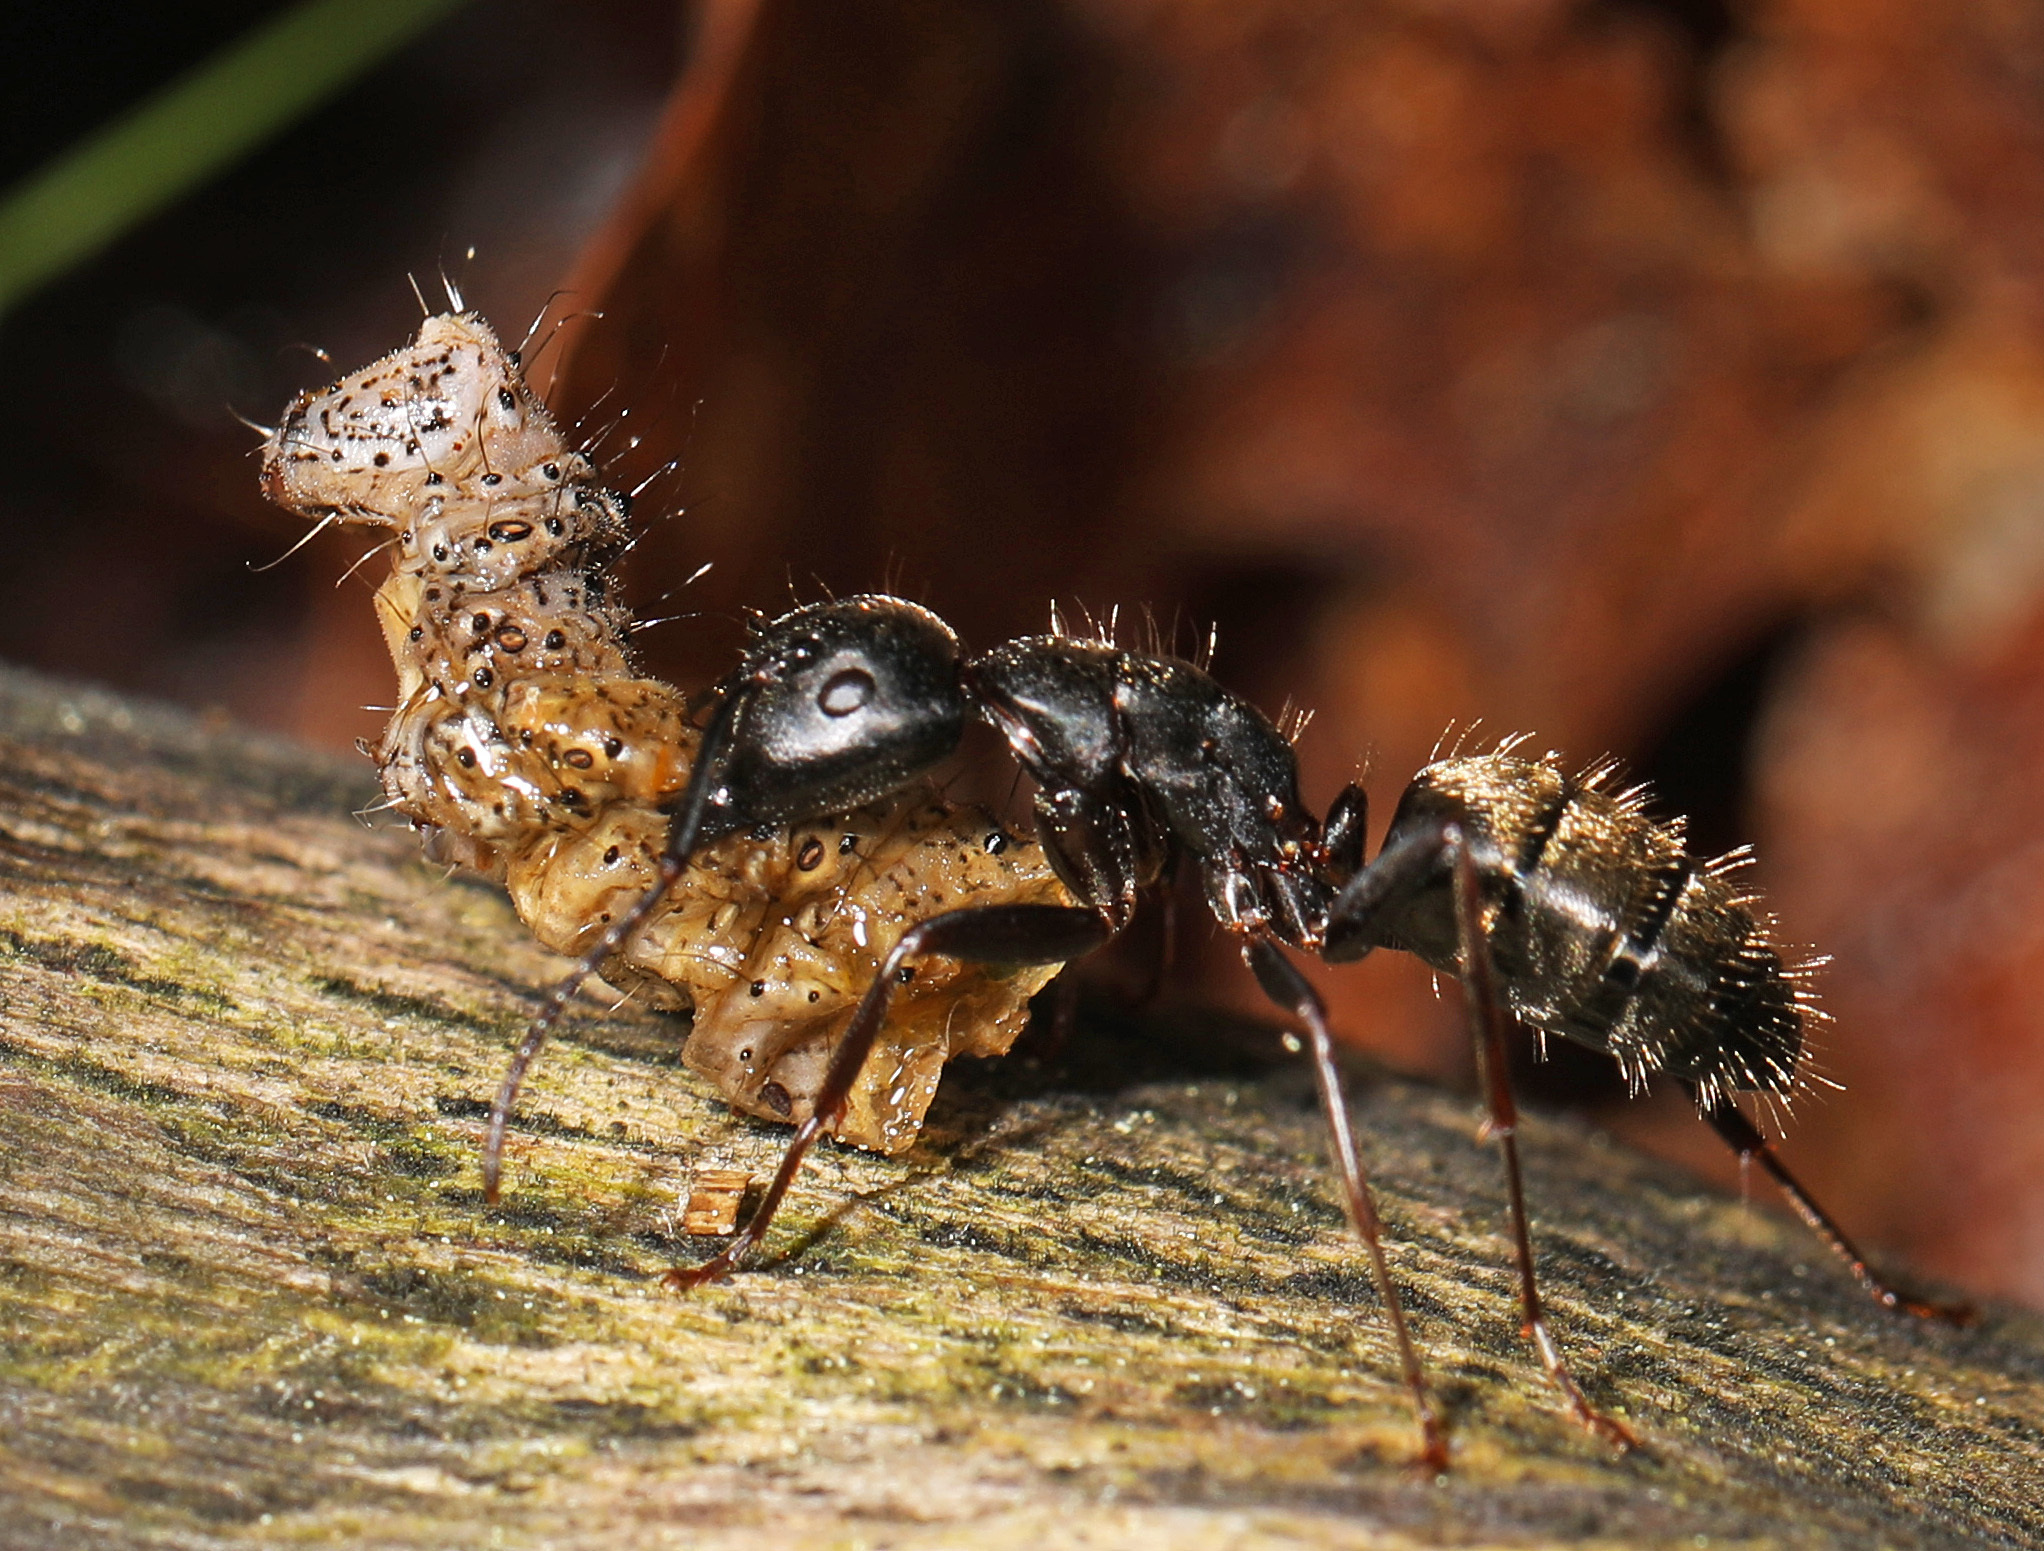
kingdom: Animalia
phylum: Arthropoda
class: Insecta
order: Hymenoptera
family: Formicidae
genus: Camponotus
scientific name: Camponotus pennsylvanicus
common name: Black carpenter ant
